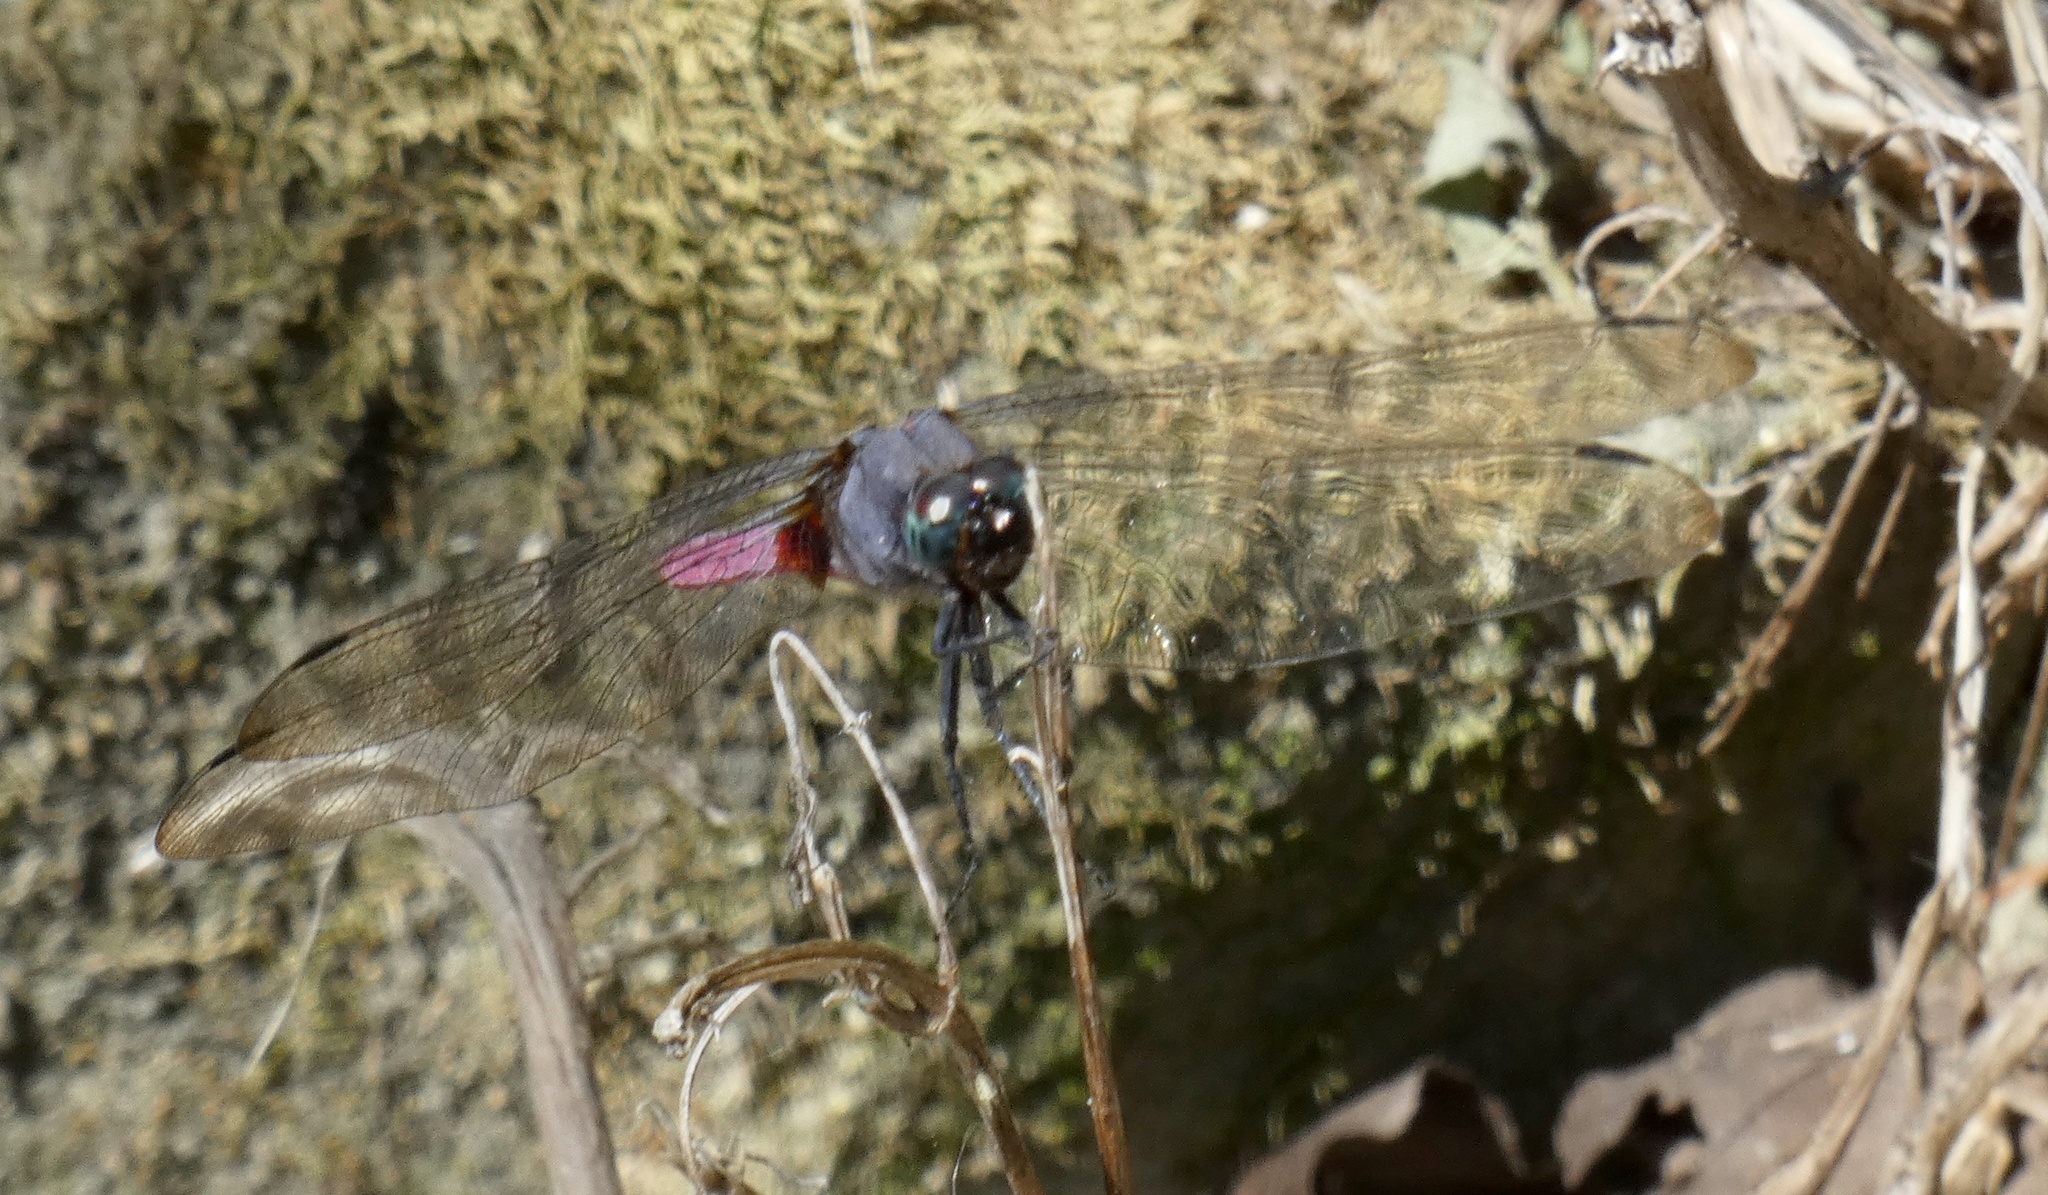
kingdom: Animalia
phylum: Arthropoda
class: Insecta
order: Odonata
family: Libellulidae
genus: Orthetrum
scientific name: Orthetrum pruinosum
